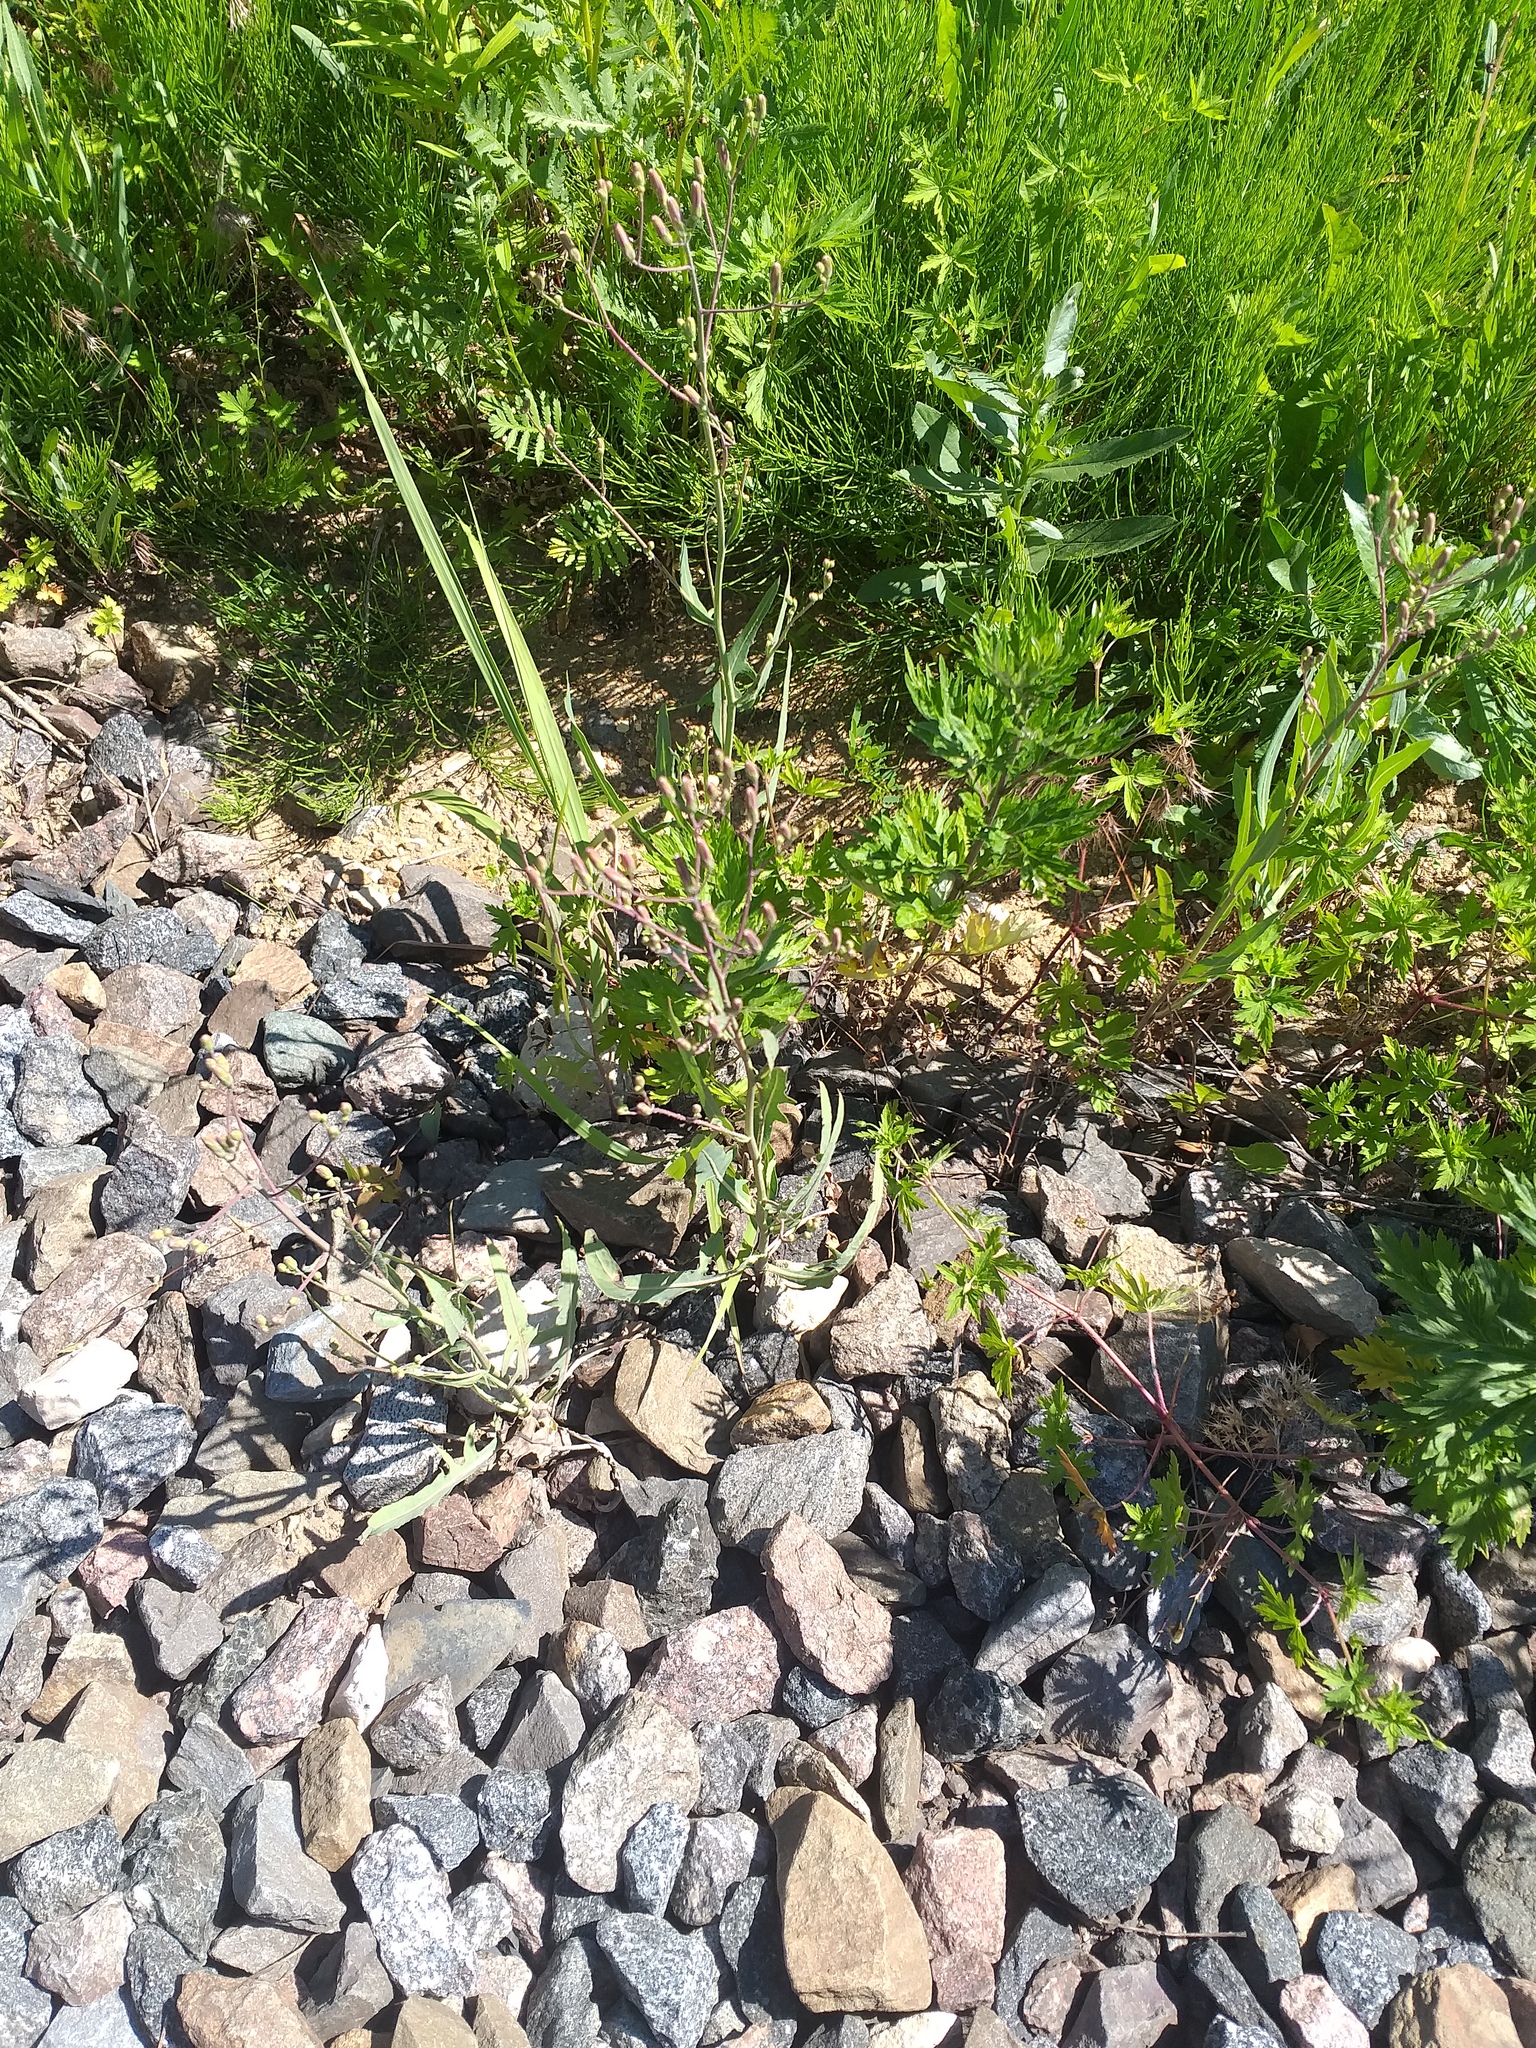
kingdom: Plantae
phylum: Tracheophyta
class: Magnoliopsida
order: Asterales
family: Asteraceae
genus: Lactuca
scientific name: Lactuca tatarica
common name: Blue lettuce
